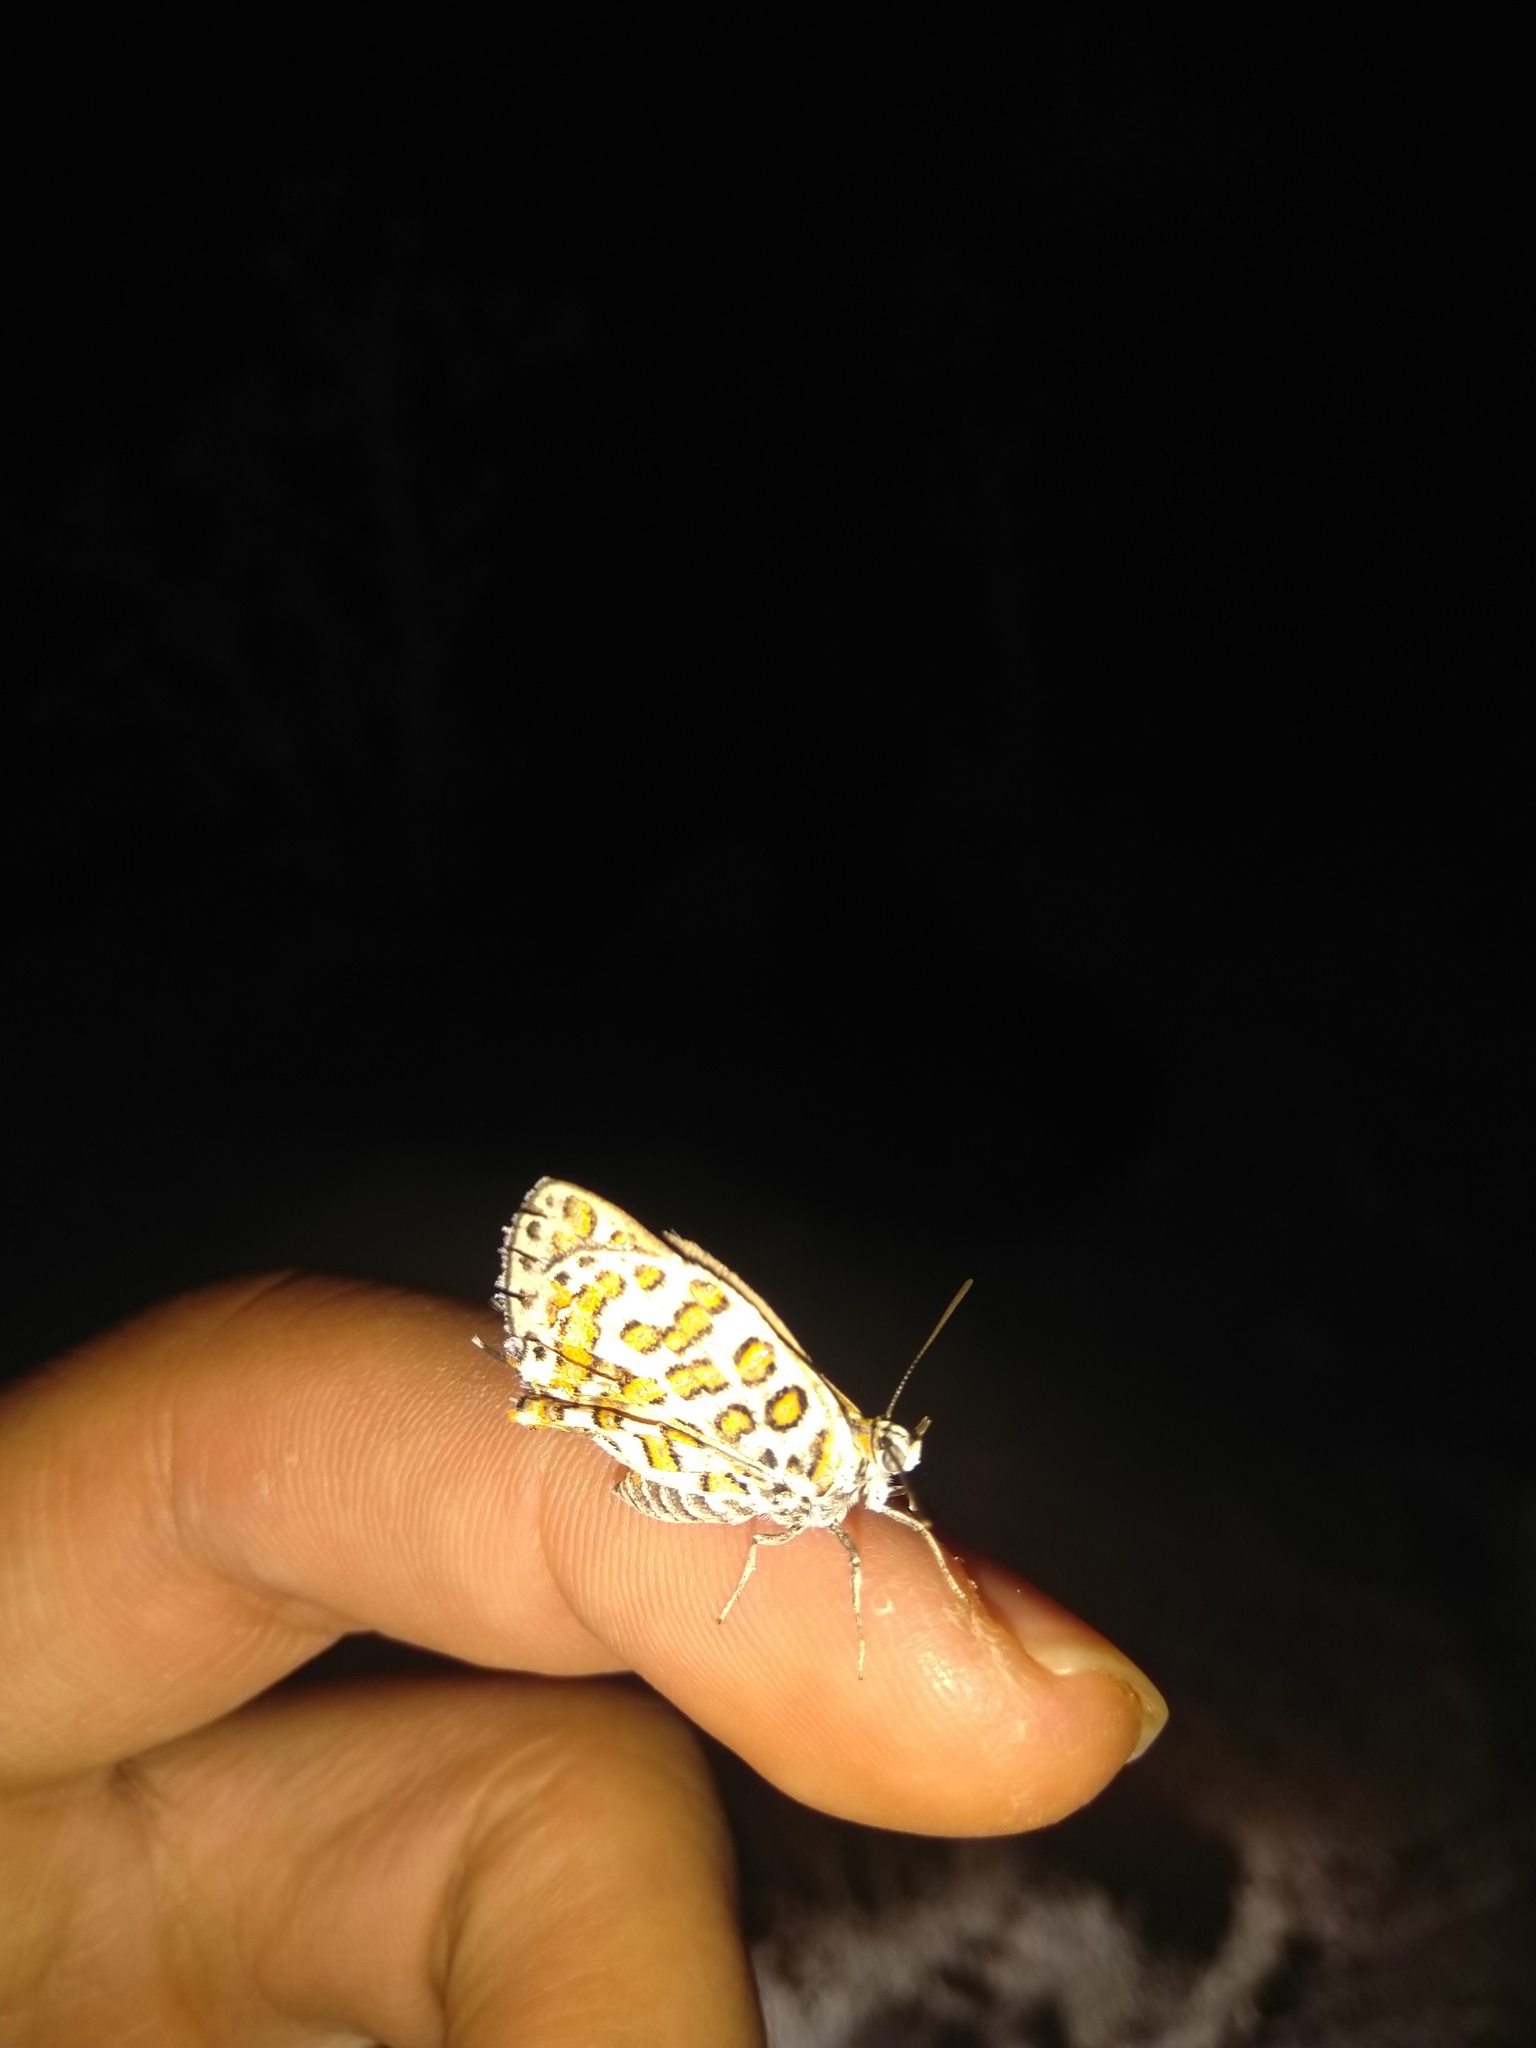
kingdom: Animalia
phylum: Arthropoda
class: Insecta
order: Lepidoptera
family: Lycaenidae
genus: Cigaritis
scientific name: Cigaritis myrmecophila
